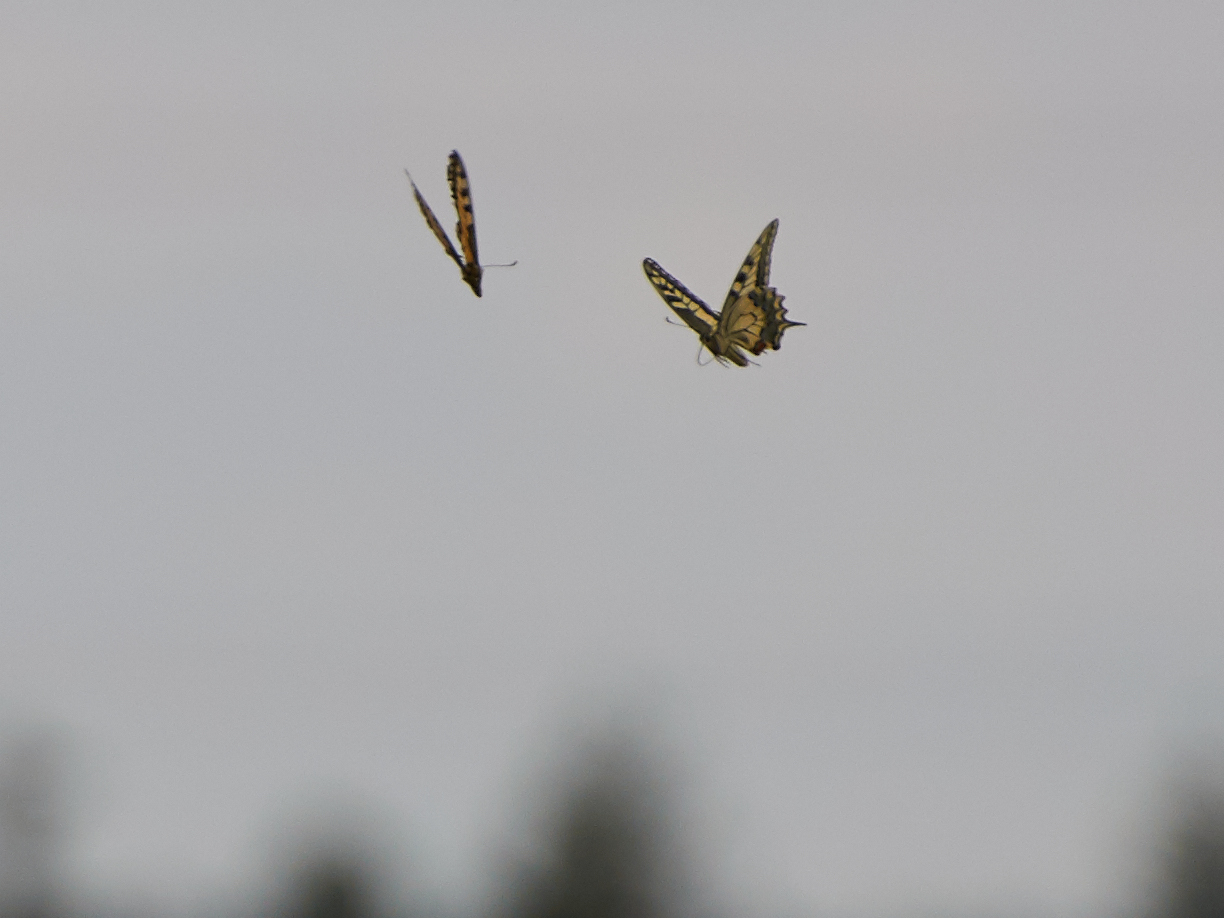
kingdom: Animalia
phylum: Arthropoda
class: Insecta
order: Lepidoptera
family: Papilionidae
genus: Papilio
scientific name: Papilio machaon
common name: Swallowtail
